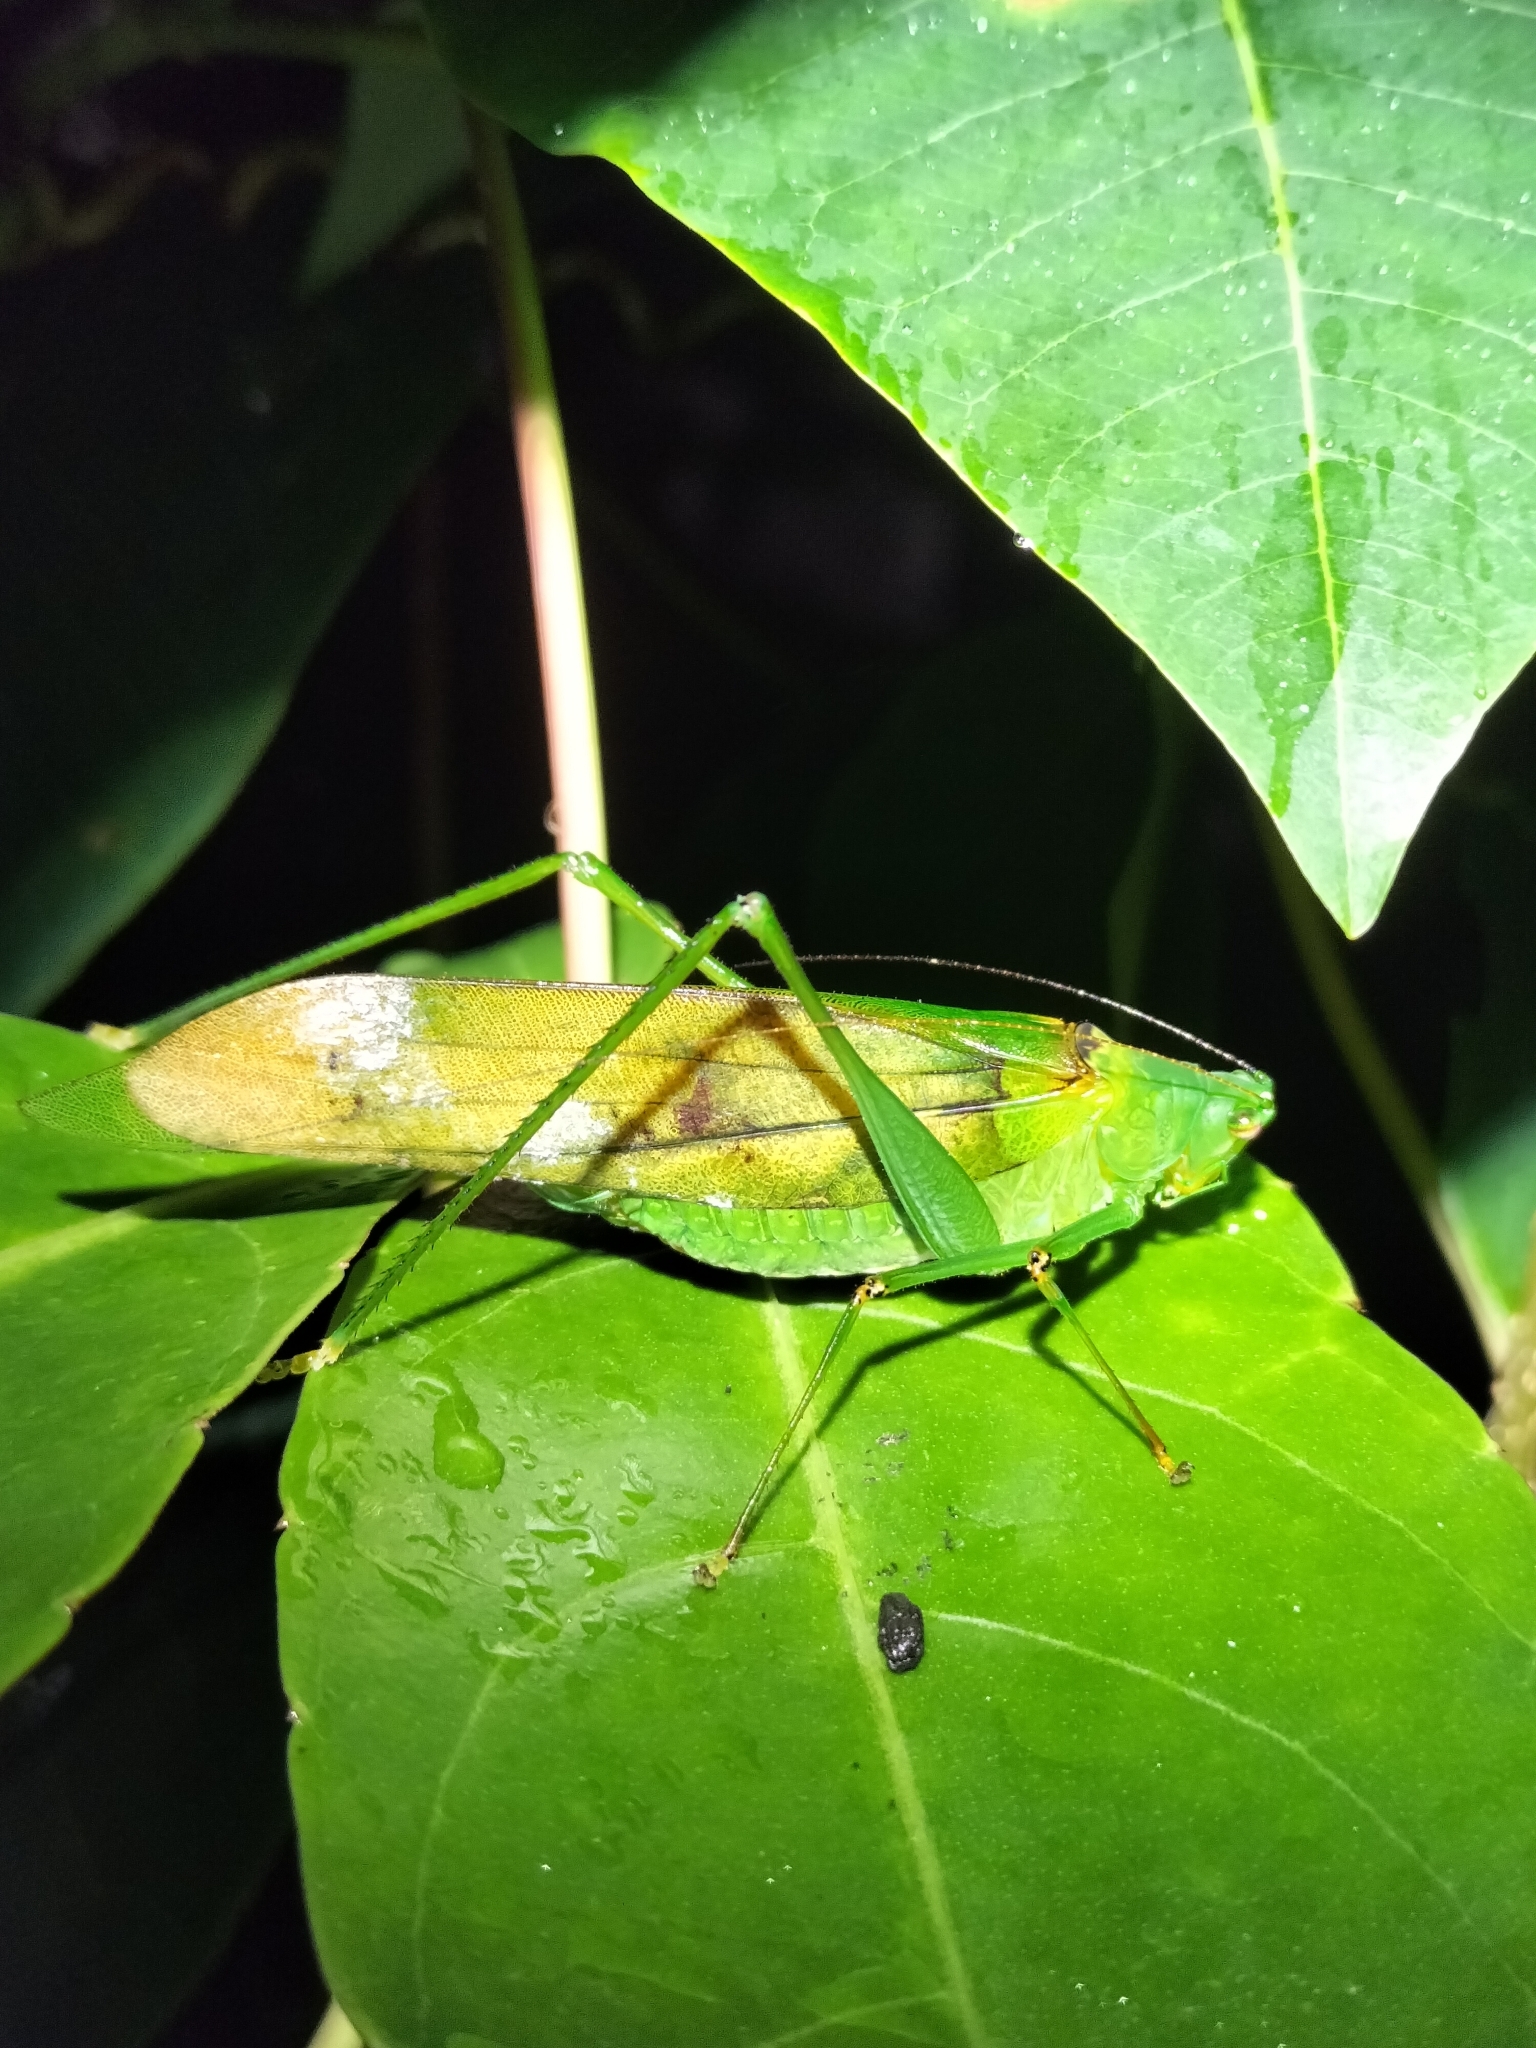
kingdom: Animalia
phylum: Arthropoda
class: Insecta
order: Orthoptera
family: Tettigoniidae
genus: Leucopodoptera
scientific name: Leucopodoptera eumundii
